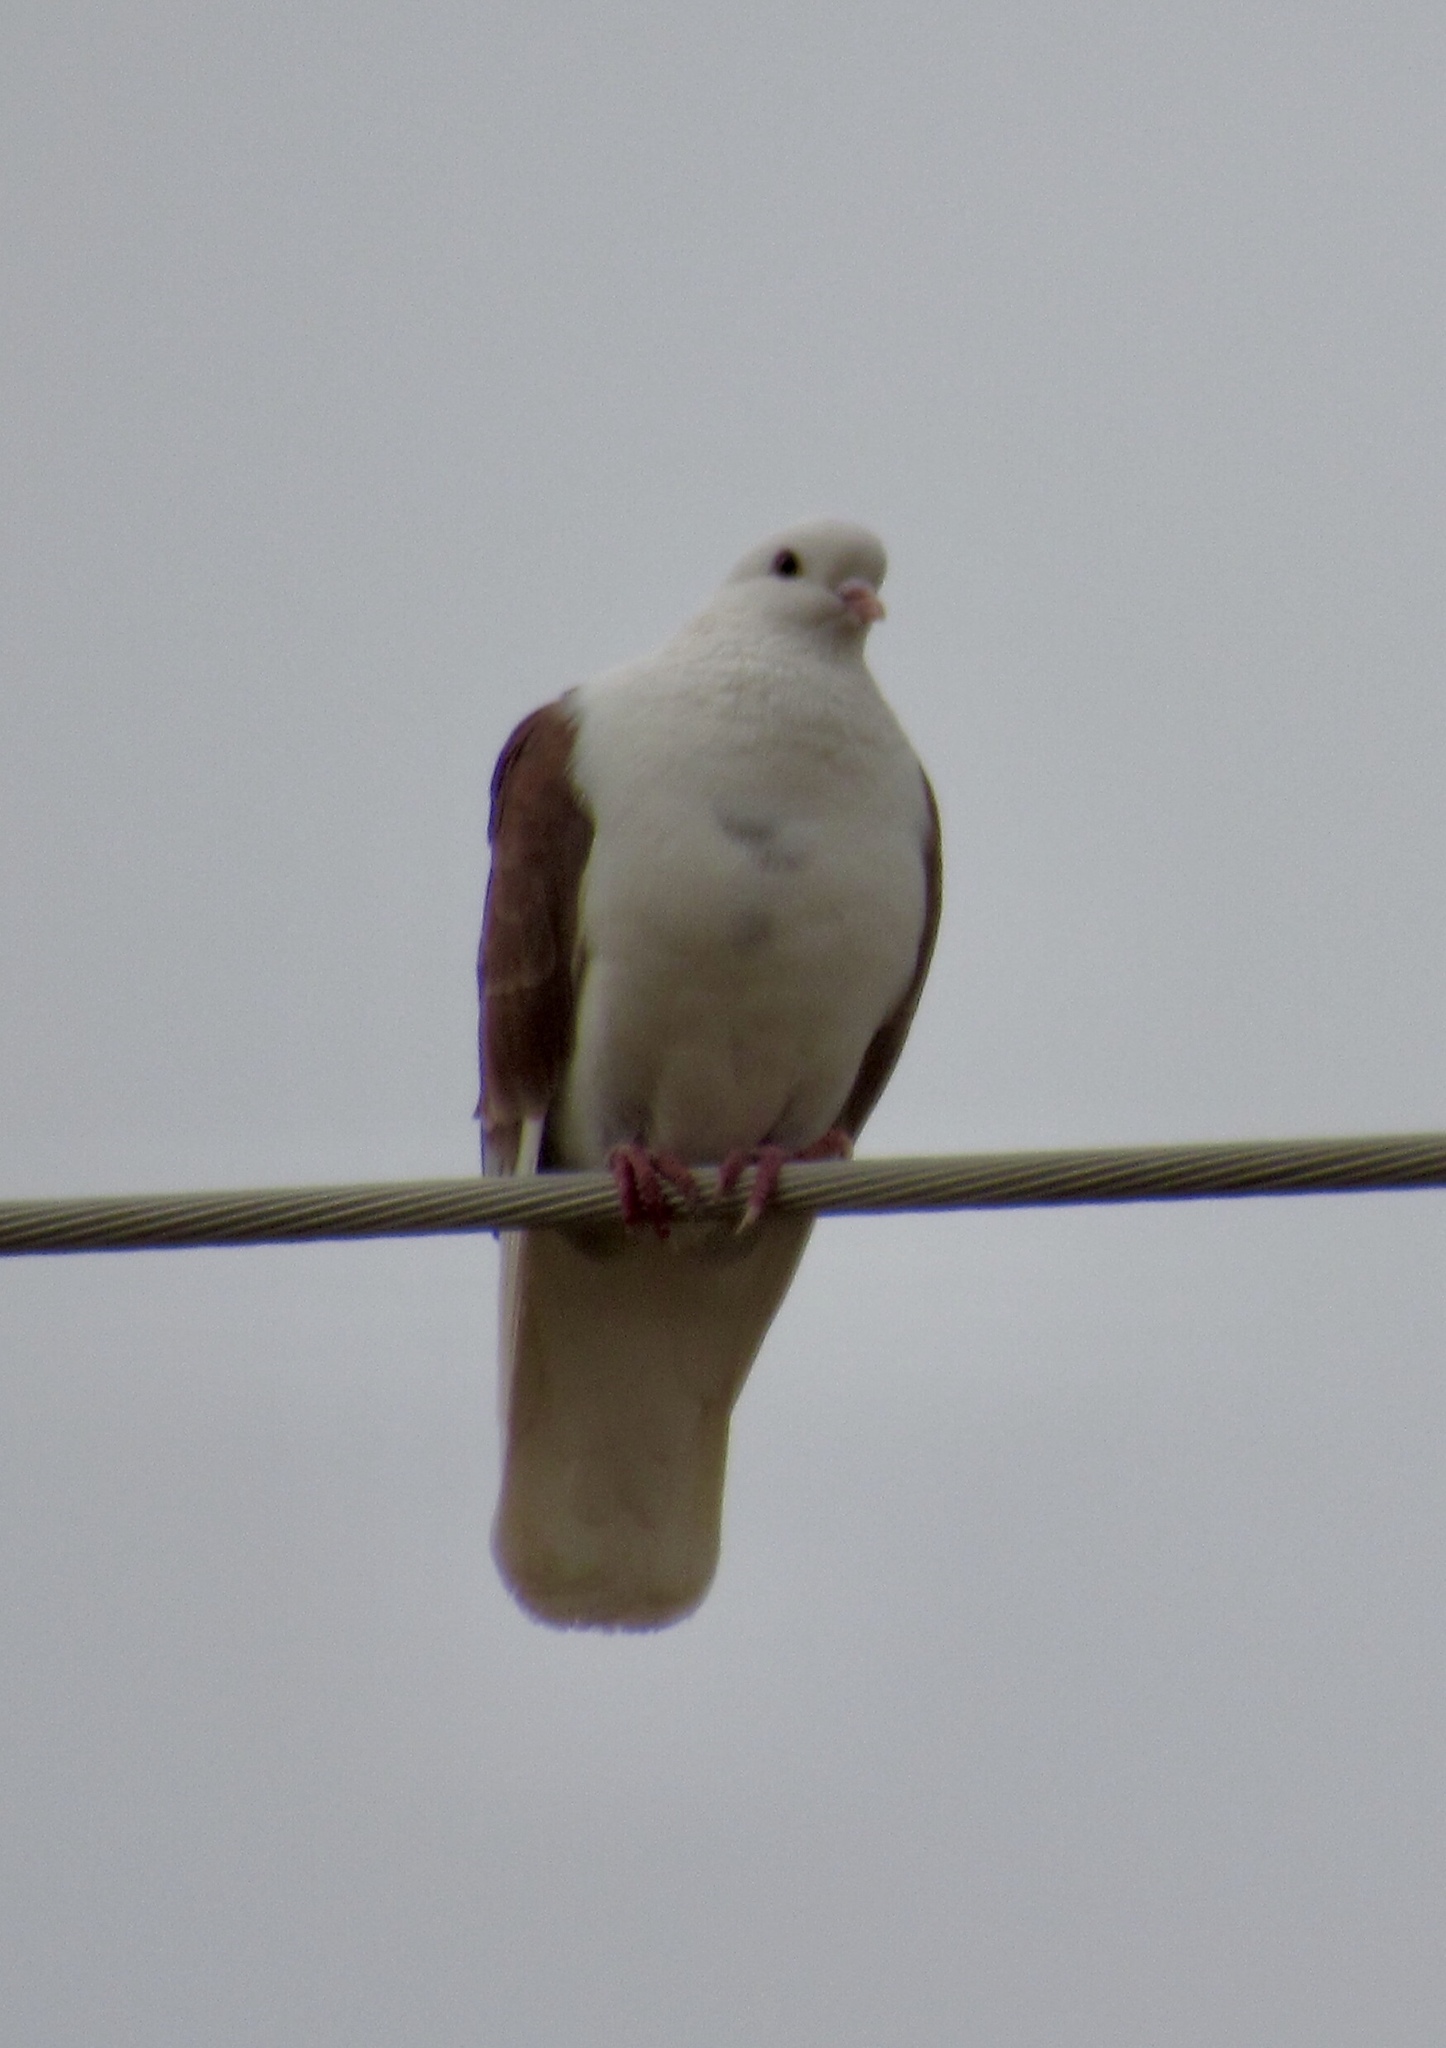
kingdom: Animalia
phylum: Chordata
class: Aves
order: Columbiformes
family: Columbidae
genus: Columba
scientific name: Columba livia
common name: Rock pigeon
